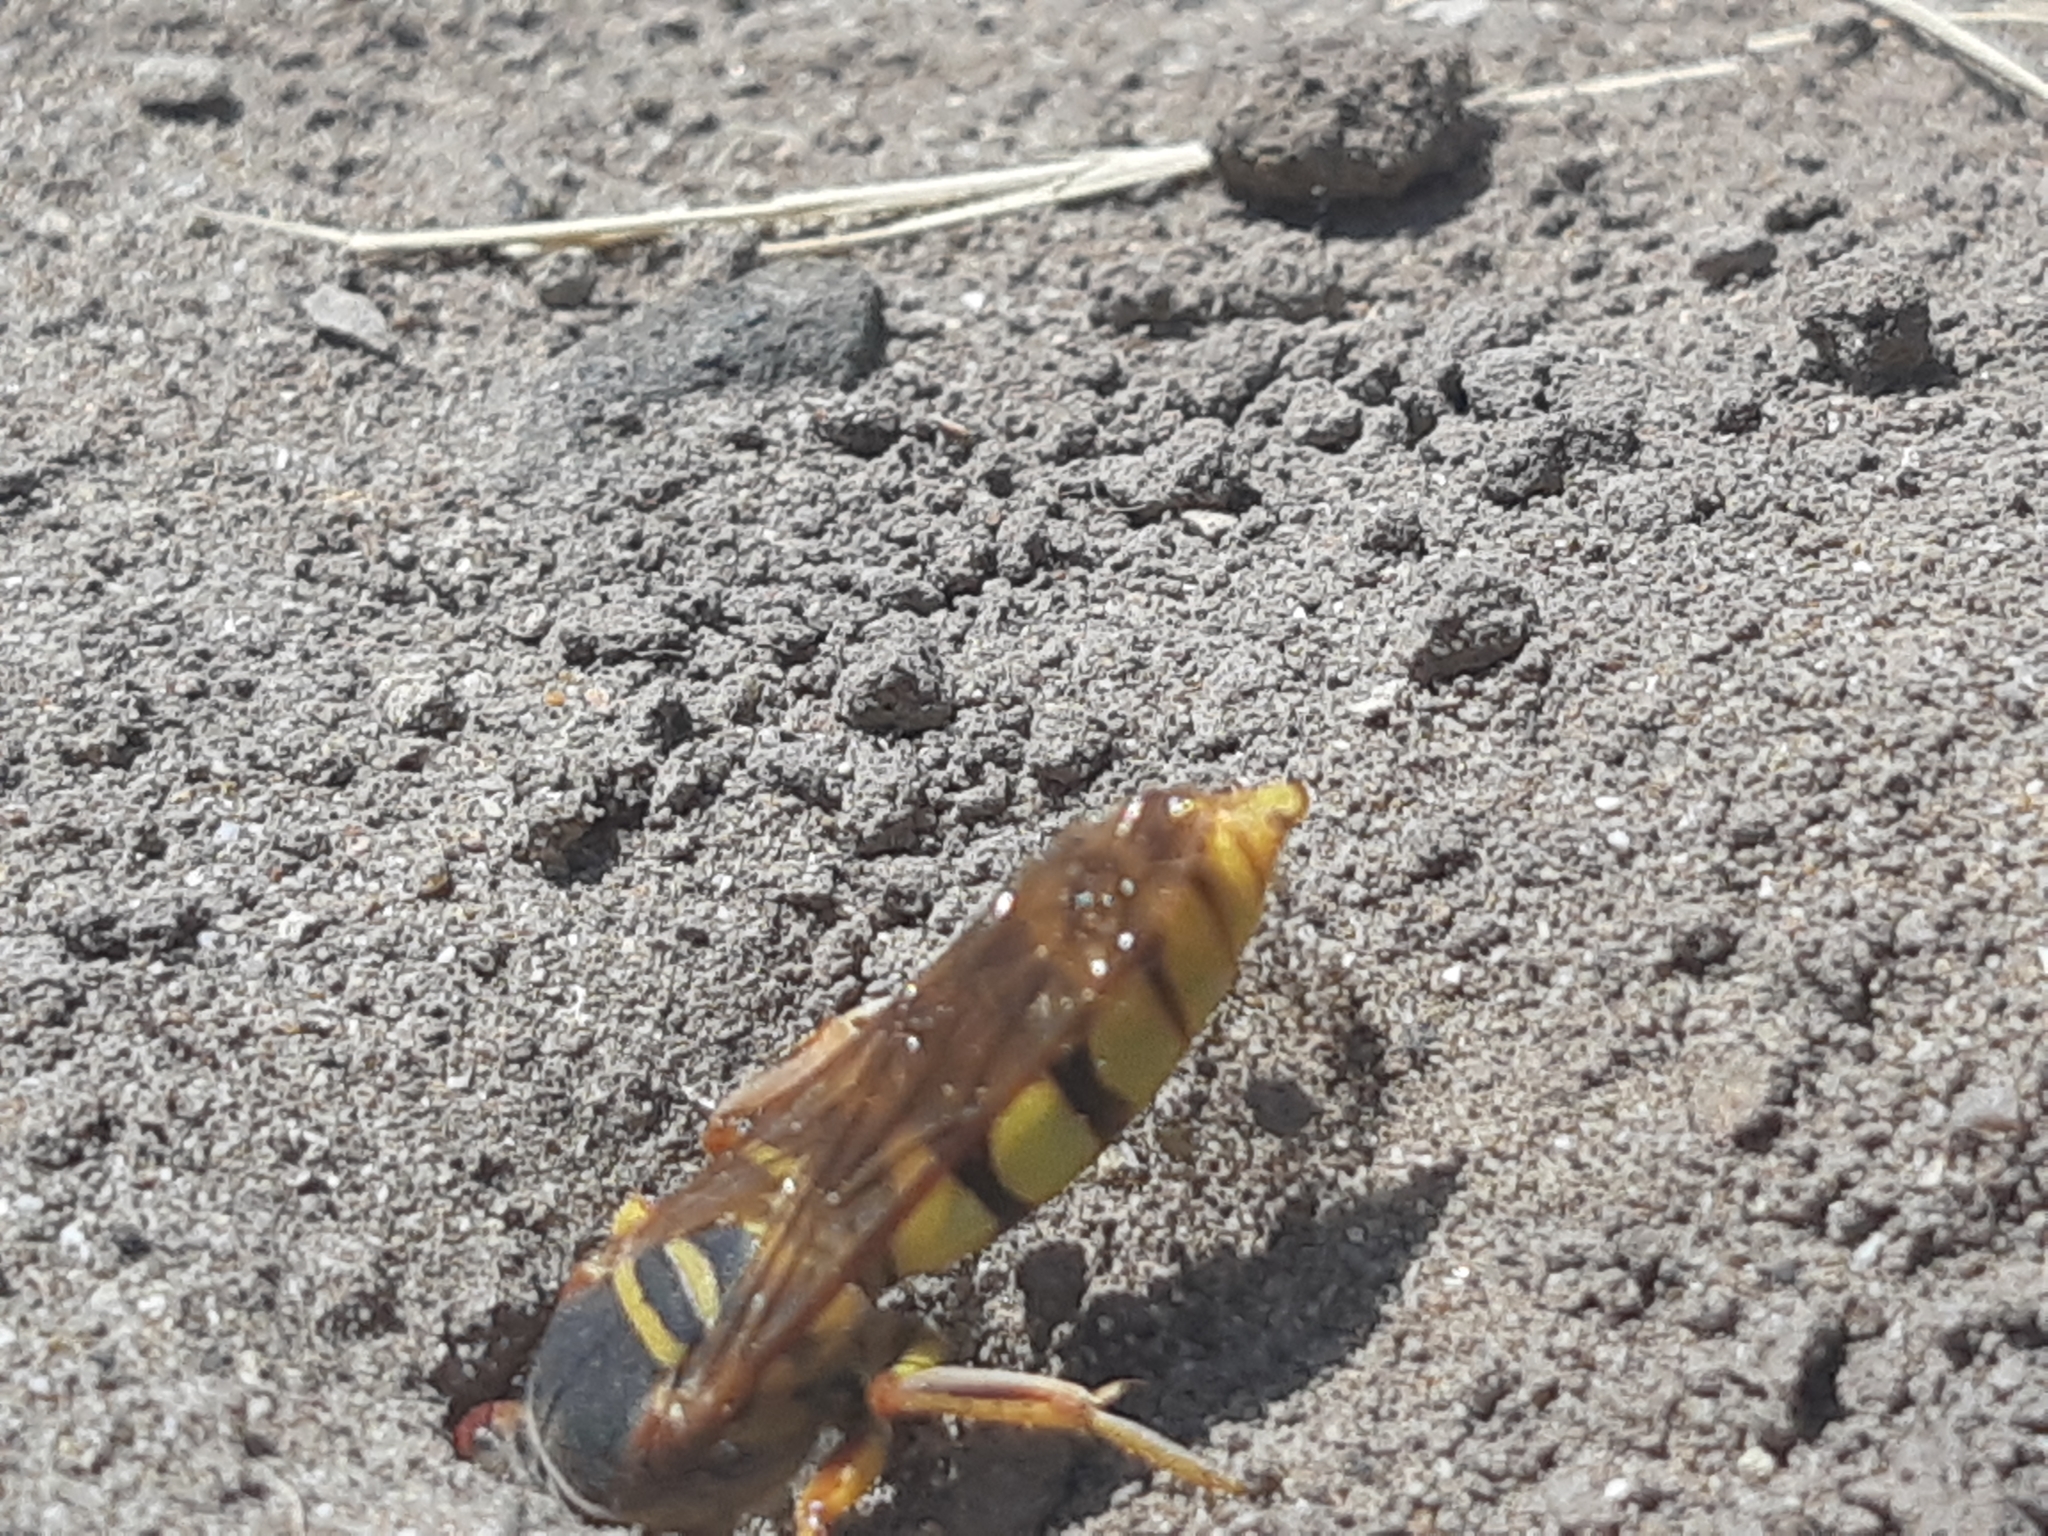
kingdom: Animalia
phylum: Arthropoda
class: Insecta
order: Hymenoptera
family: Crabronidae
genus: Rubrica
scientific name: Rubrica nasuta
